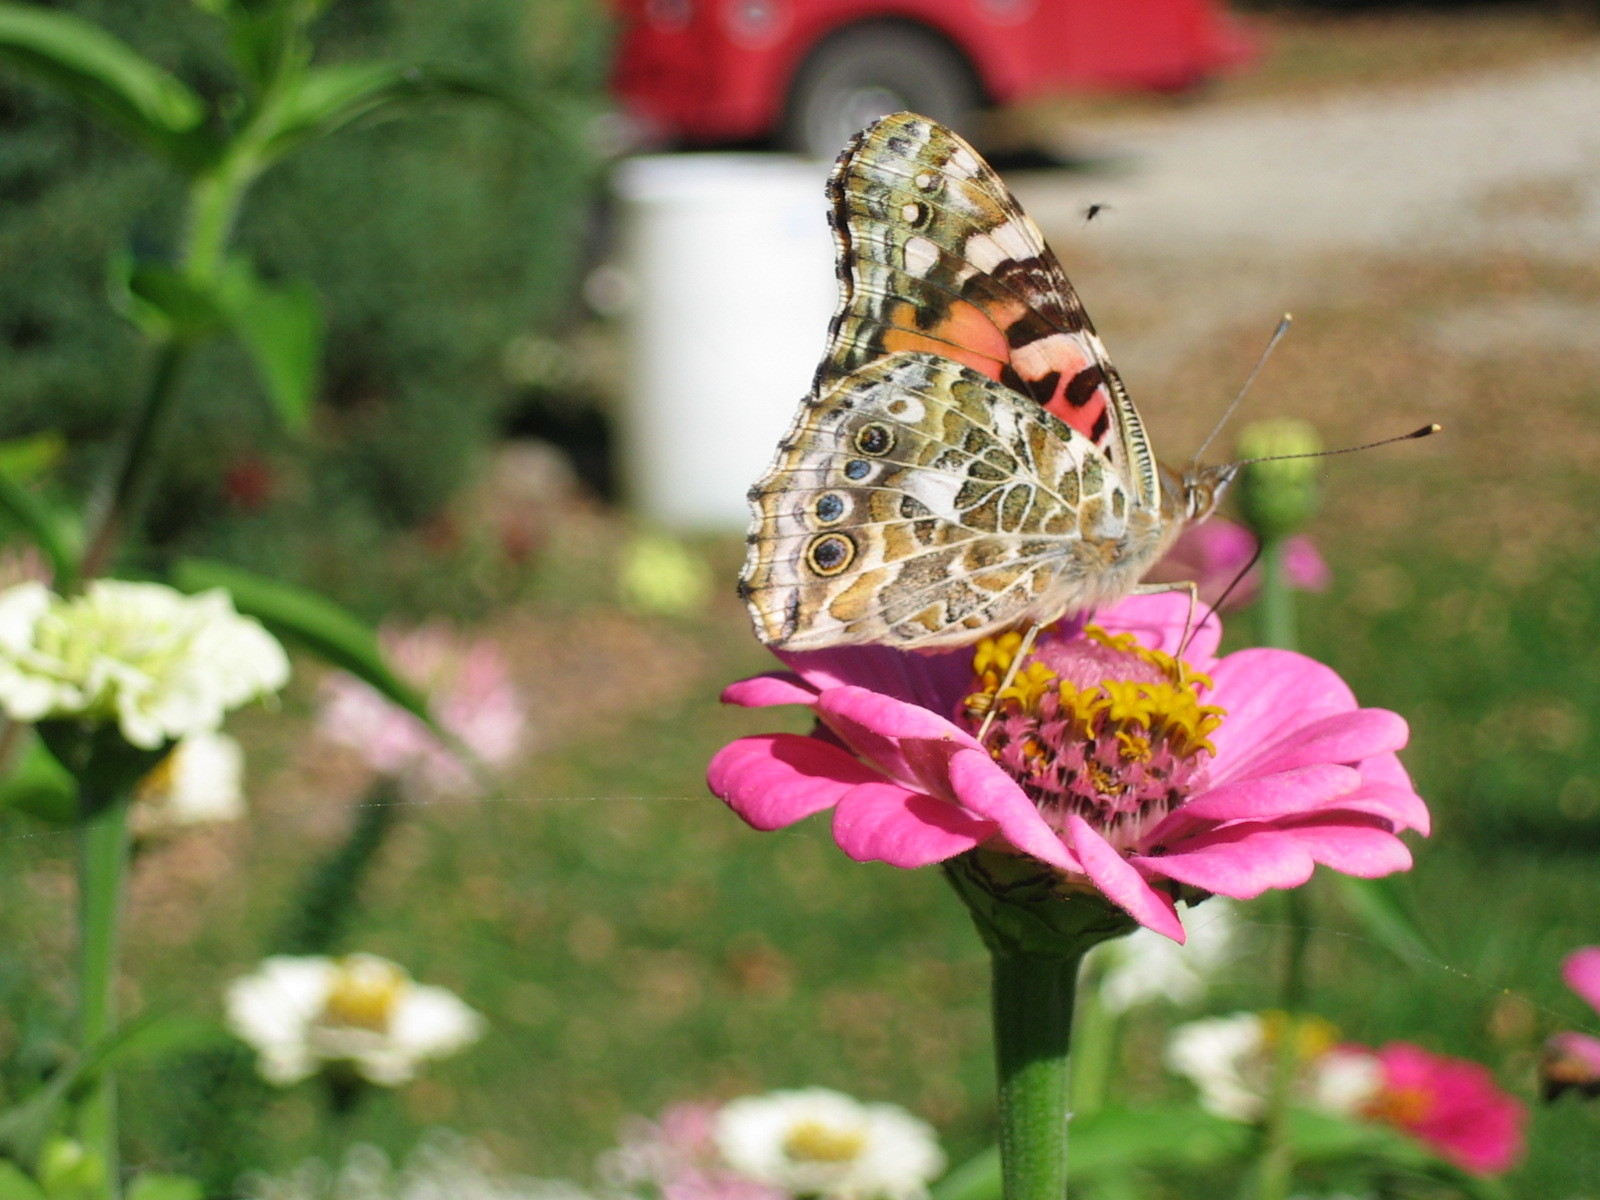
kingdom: Animalia
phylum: Arthropoda
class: Insecta
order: Lepidoptera
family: Nymphalidae
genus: Vanessa
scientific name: Vanessa cardui
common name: Painted lady
